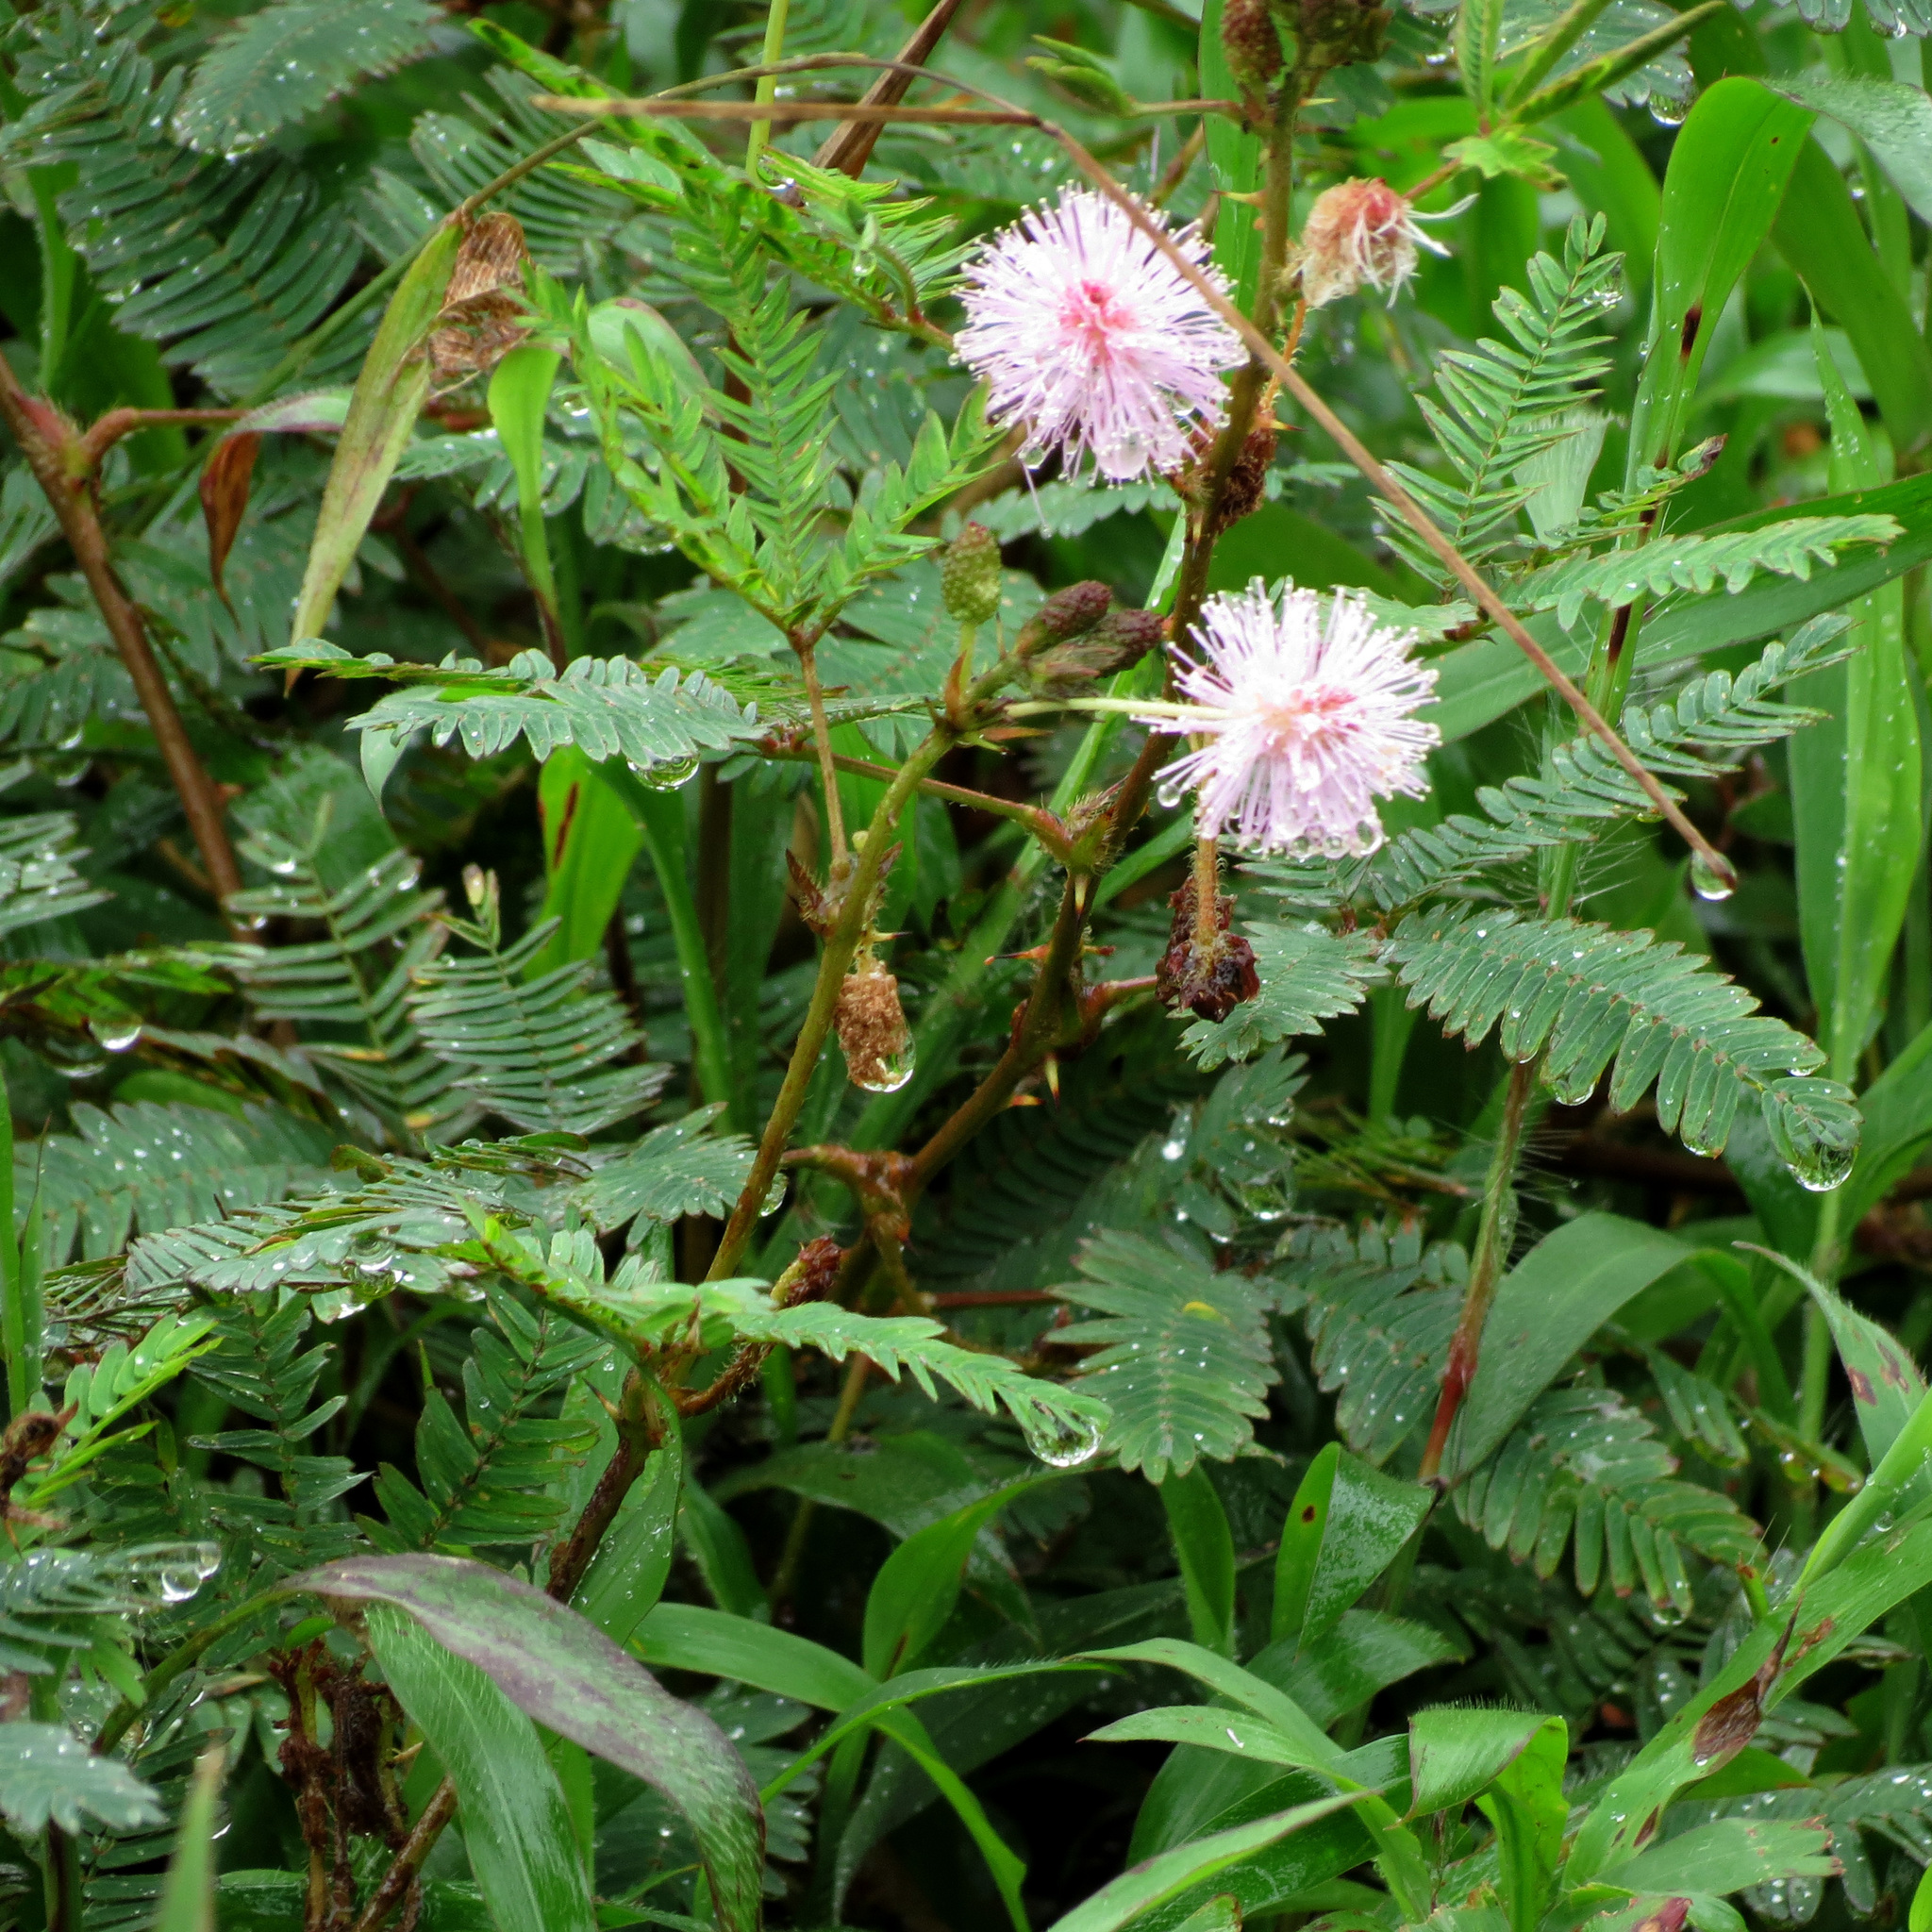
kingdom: Plantae
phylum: Tracheophyta
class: Magnoliopsida
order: Fabales
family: Fabaceae
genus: Mimosa
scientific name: Mimosa pudica
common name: Sensitive plant
